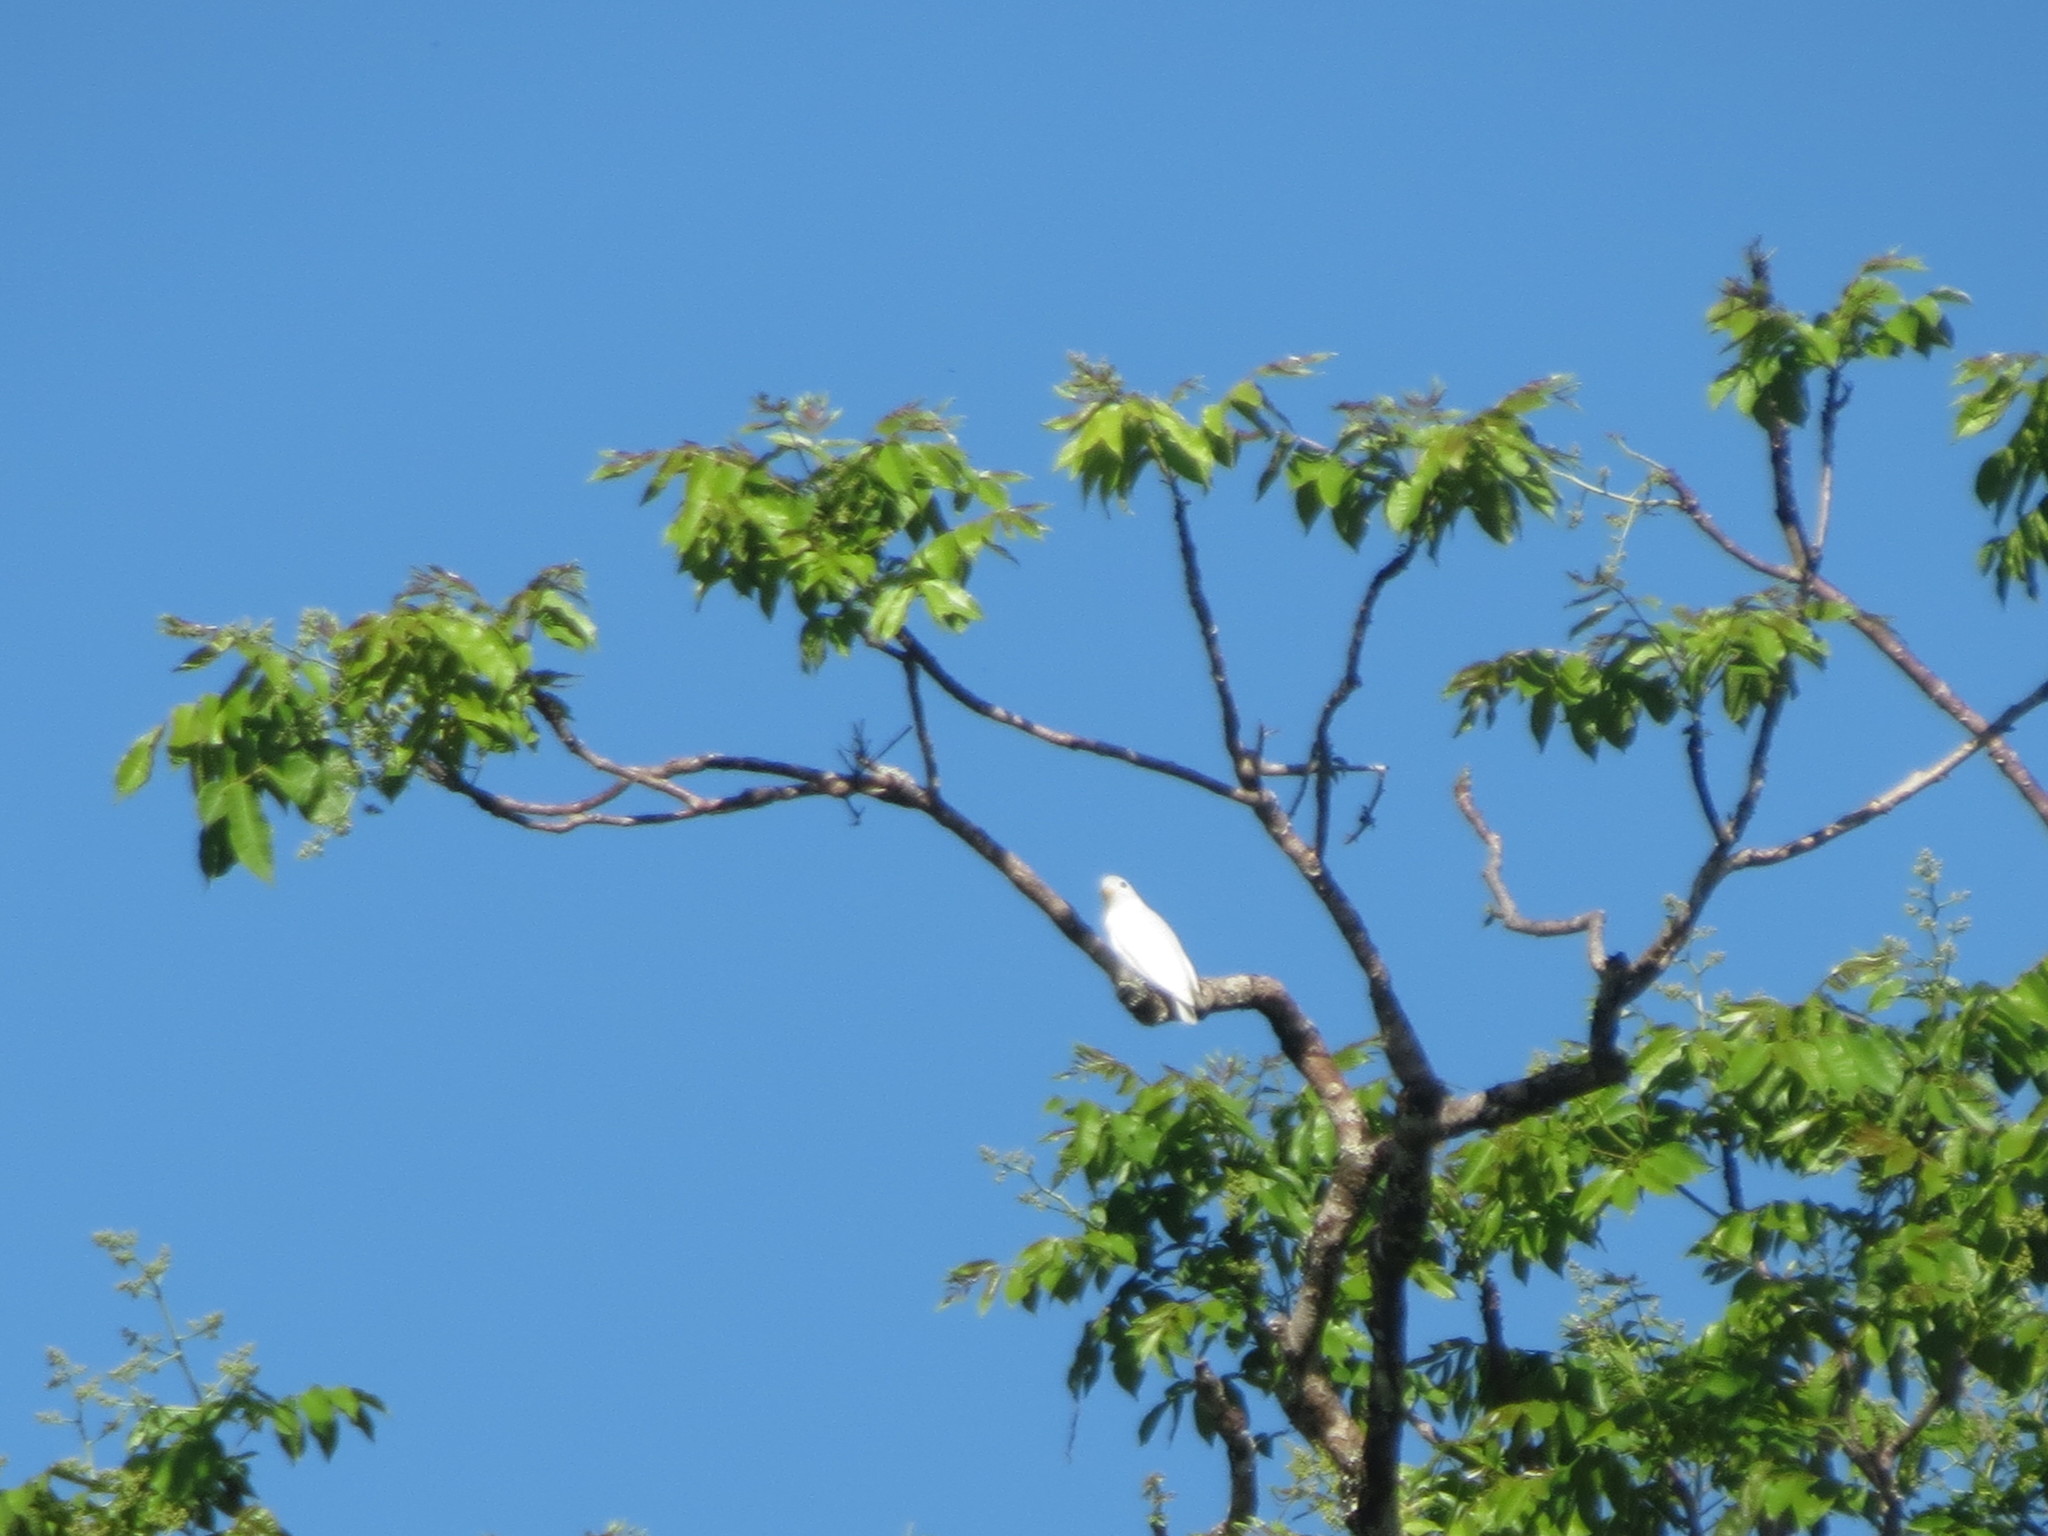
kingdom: Animalia
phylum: Chordata
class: Aves
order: Passeriformes
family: Cotingidae
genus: Carpodectes
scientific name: Carpodectes antoniae
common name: Yellow-billed cotinga
